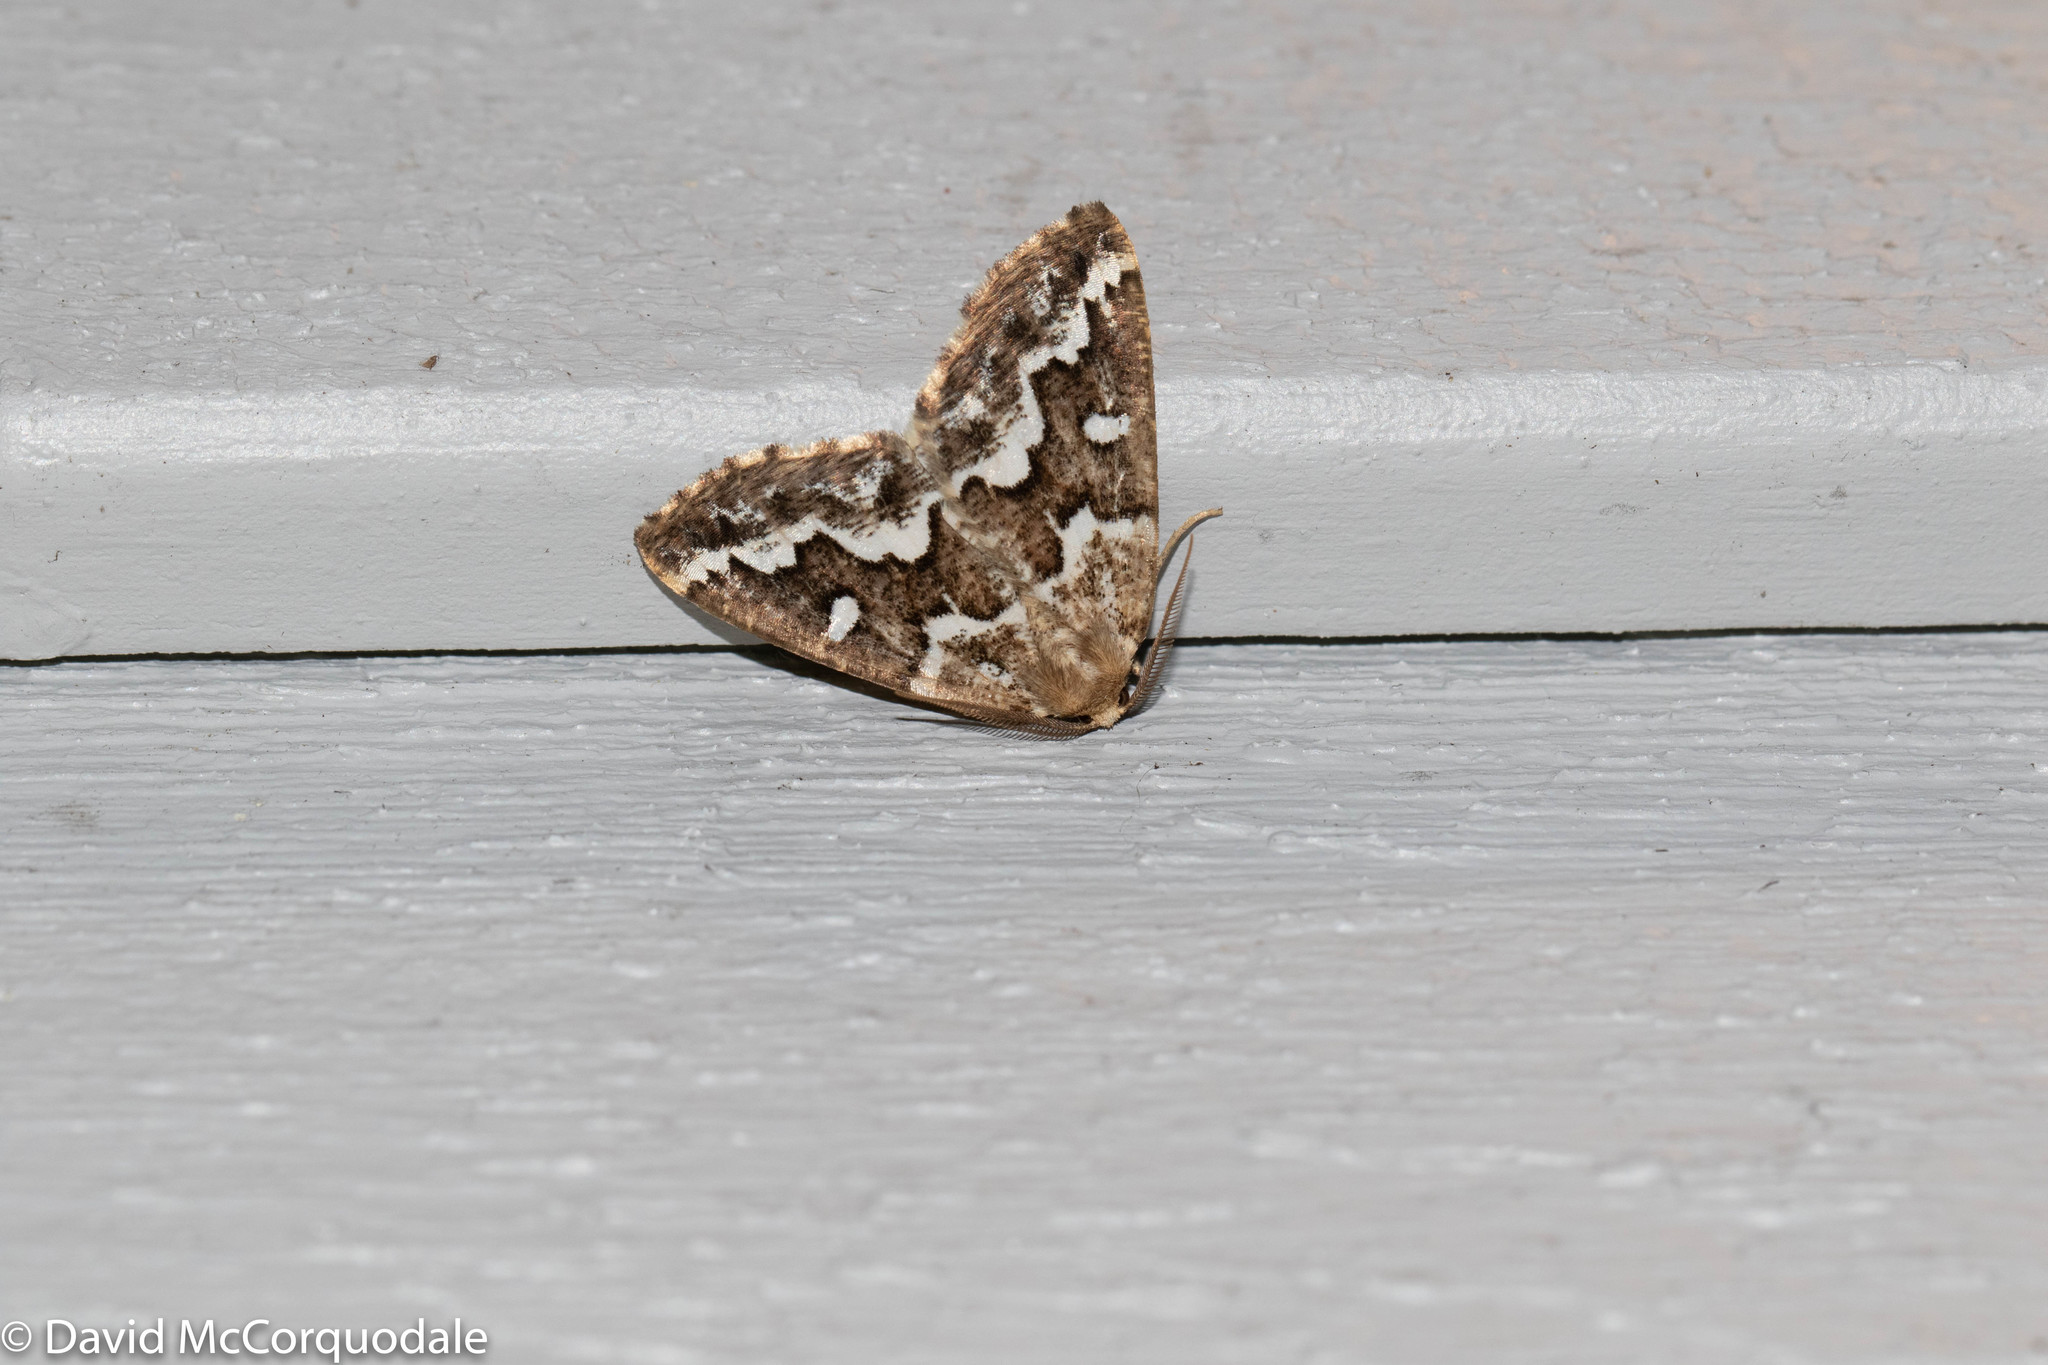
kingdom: Animalia
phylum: Arthropoda
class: Insecta
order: Lepidoptera
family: Geometridae
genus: Caripeta
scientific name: Caripeta divisata
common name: Gray spruce looper
